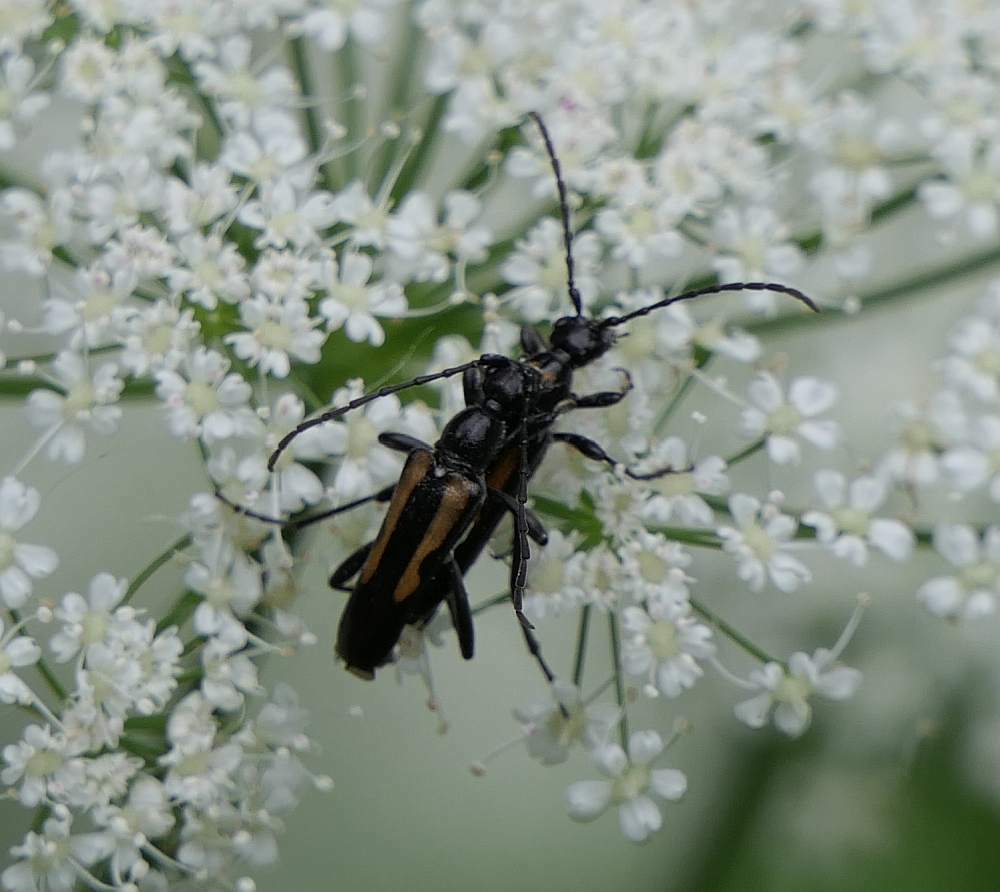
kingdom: Animalia
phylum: Arthropoda
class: Insecta
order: Coleoptera
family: Cerambycidae
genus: Strangalepta
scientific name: Strangalepta abbreviata
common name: Strangalepta flower longhorn beetle
